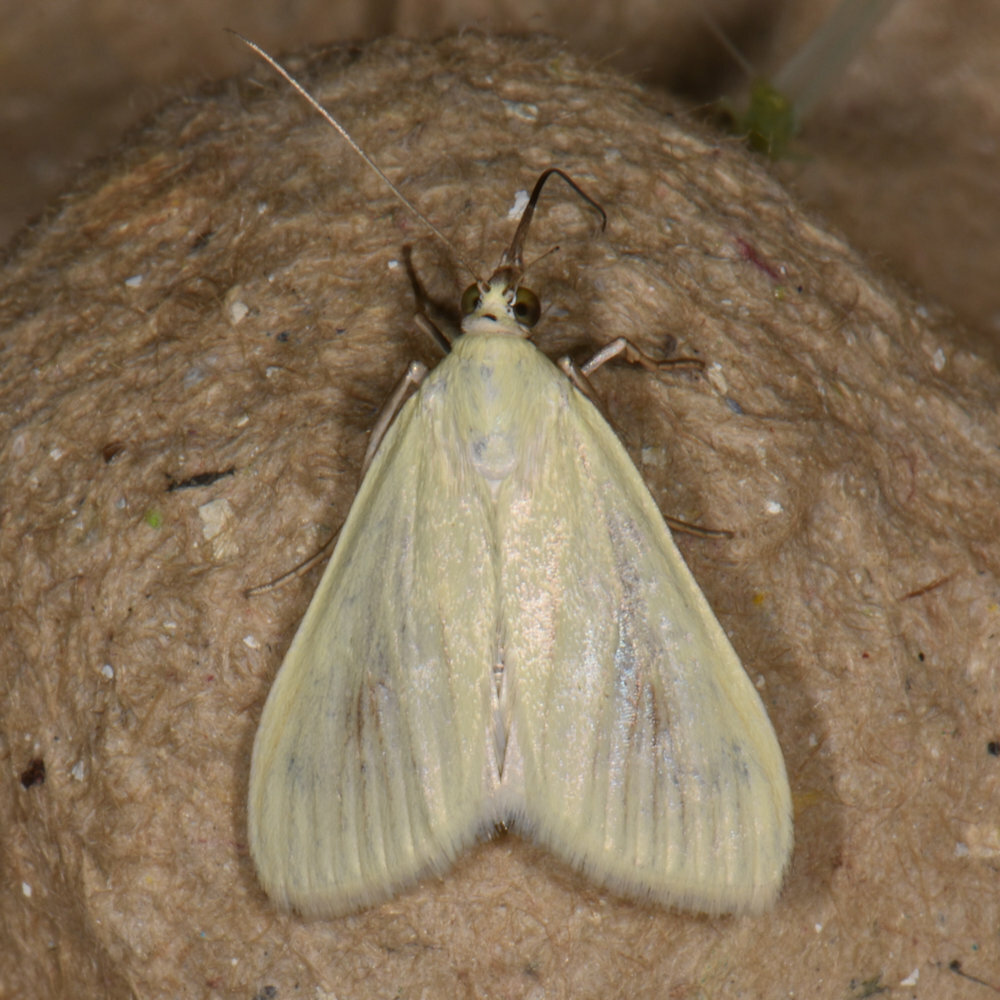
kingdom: Animalia
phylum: Arthropoda
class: Insecta
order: Lepidoptera
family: Crambidae
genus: Sitochroa
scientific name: Sitochroa palealis
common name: Greenish-yellow sitochroa moth
